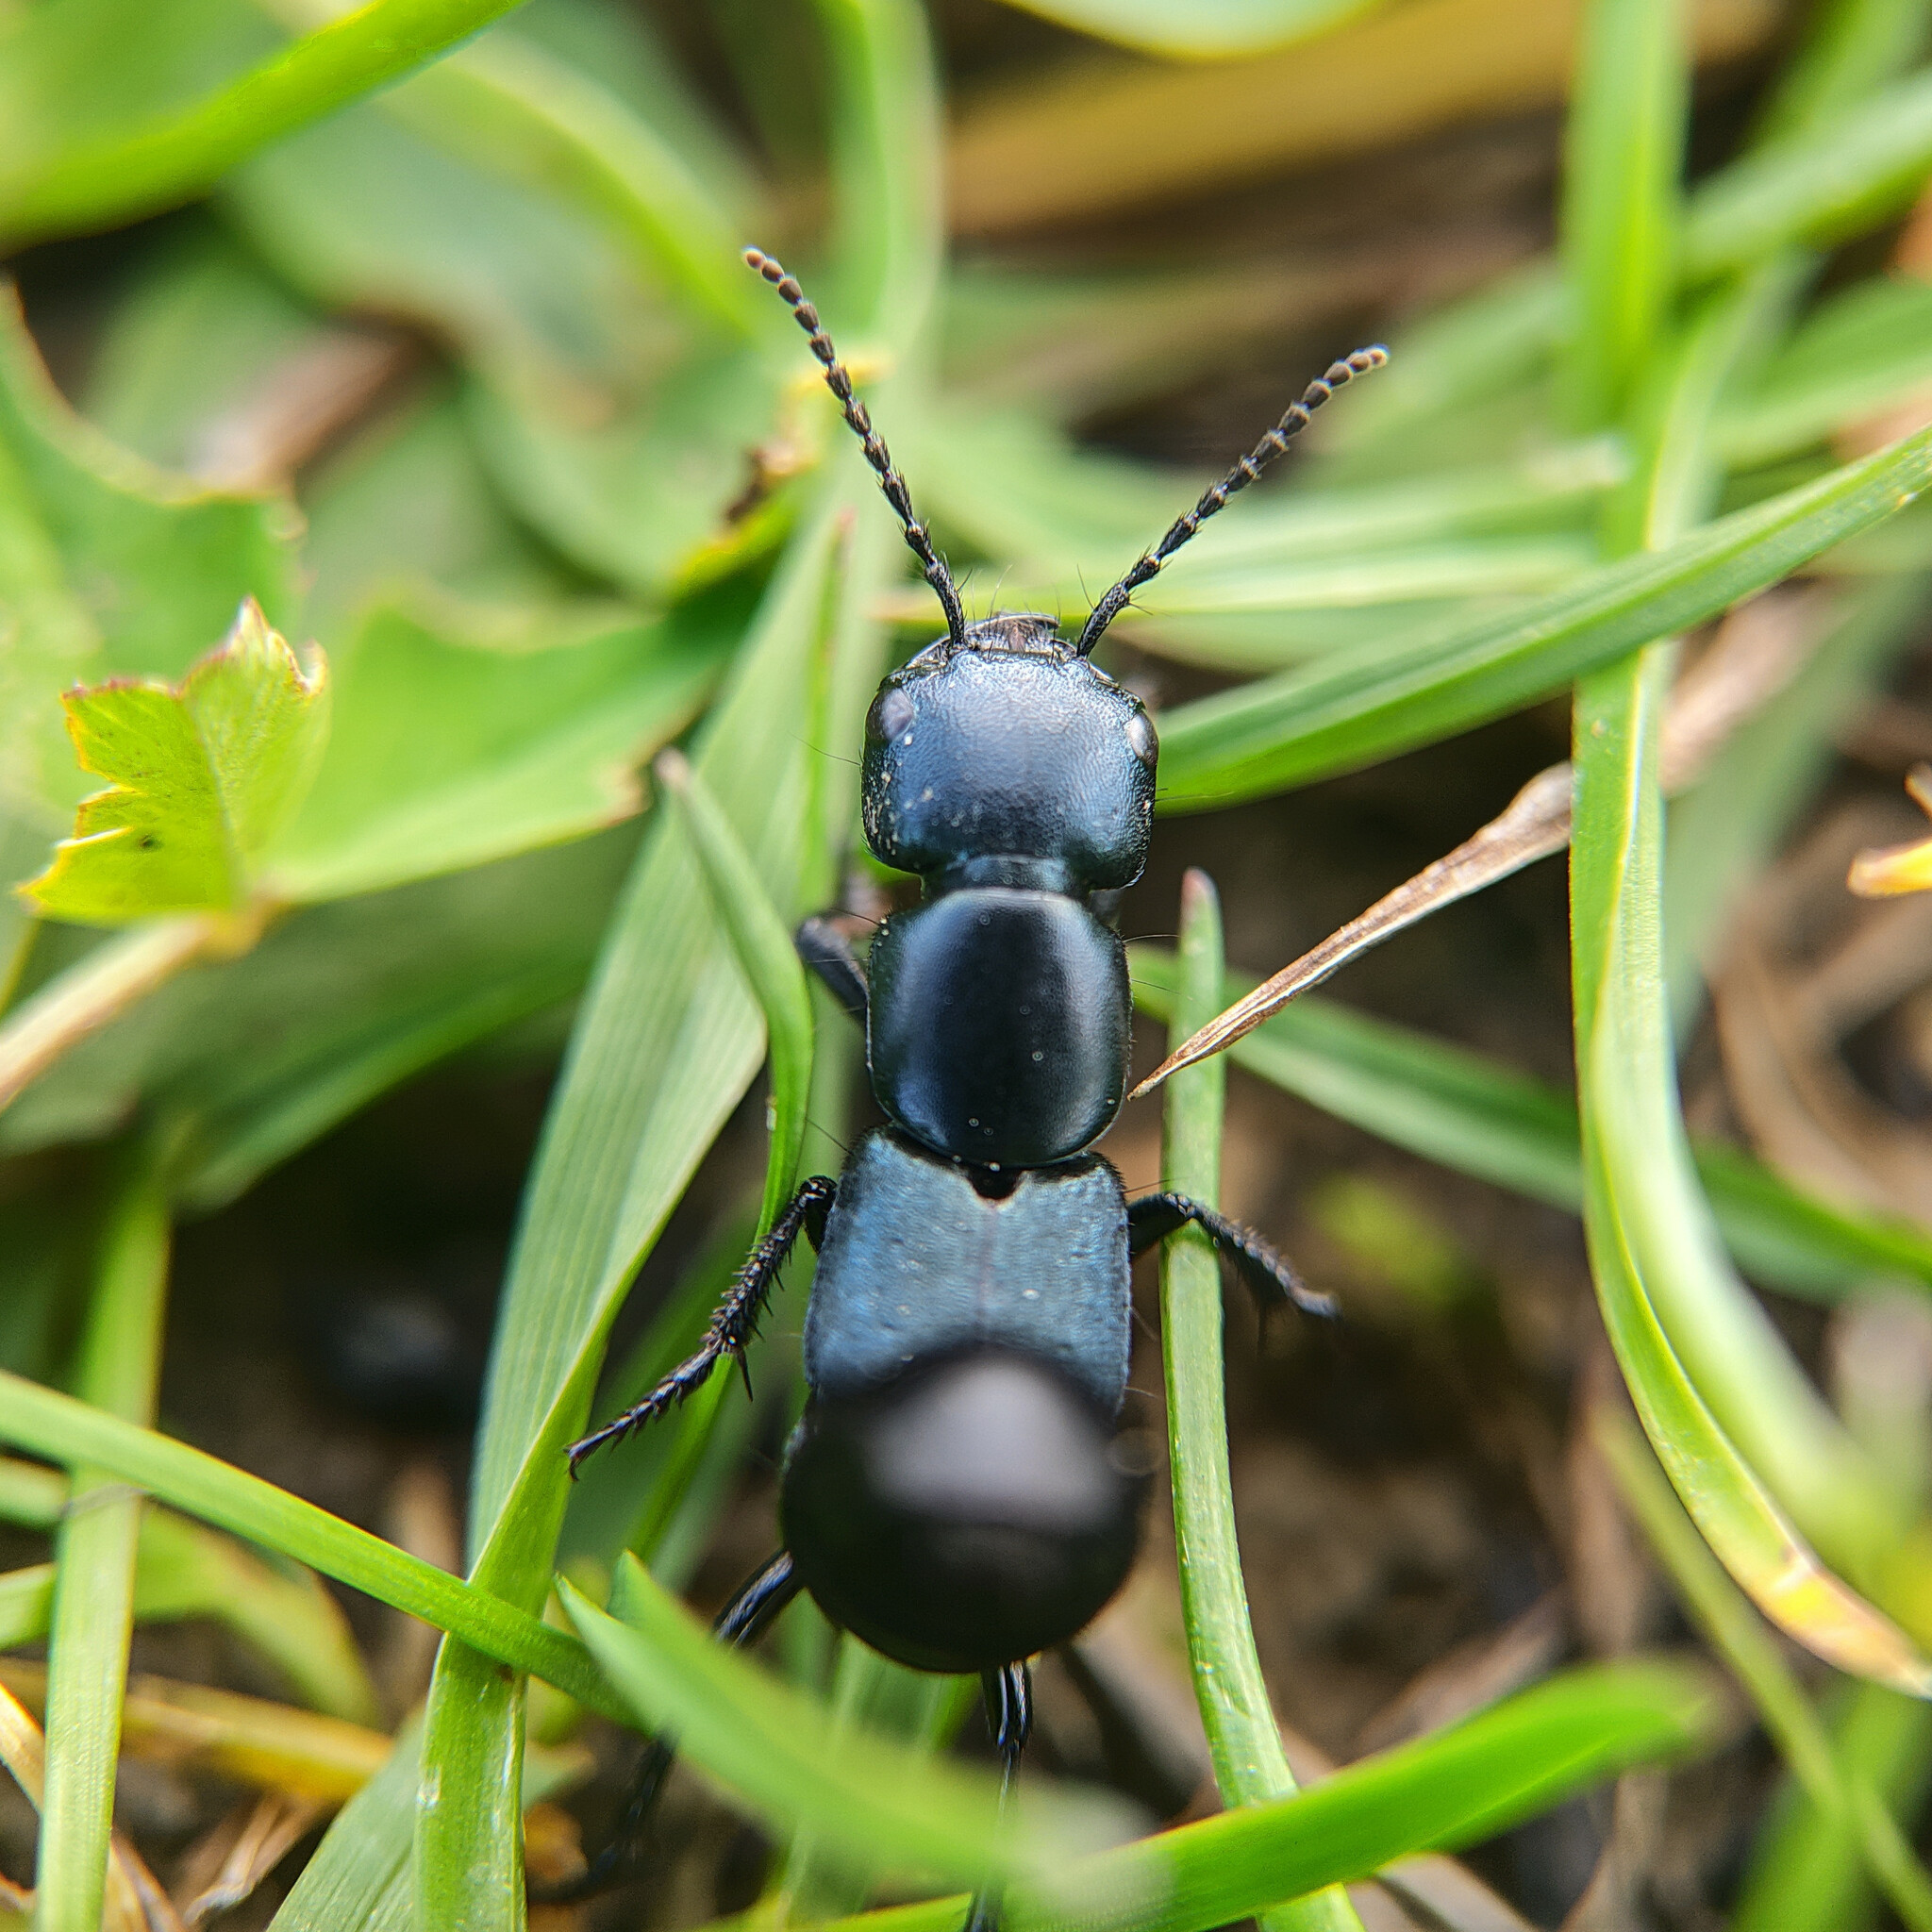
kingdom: Animalia
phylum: Arthropoda
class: Insecta
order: Coleoptera
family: Staphylinidae
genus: Ocypus
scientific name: Ocypus ophthalmicus
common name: Blue rove-beetle
